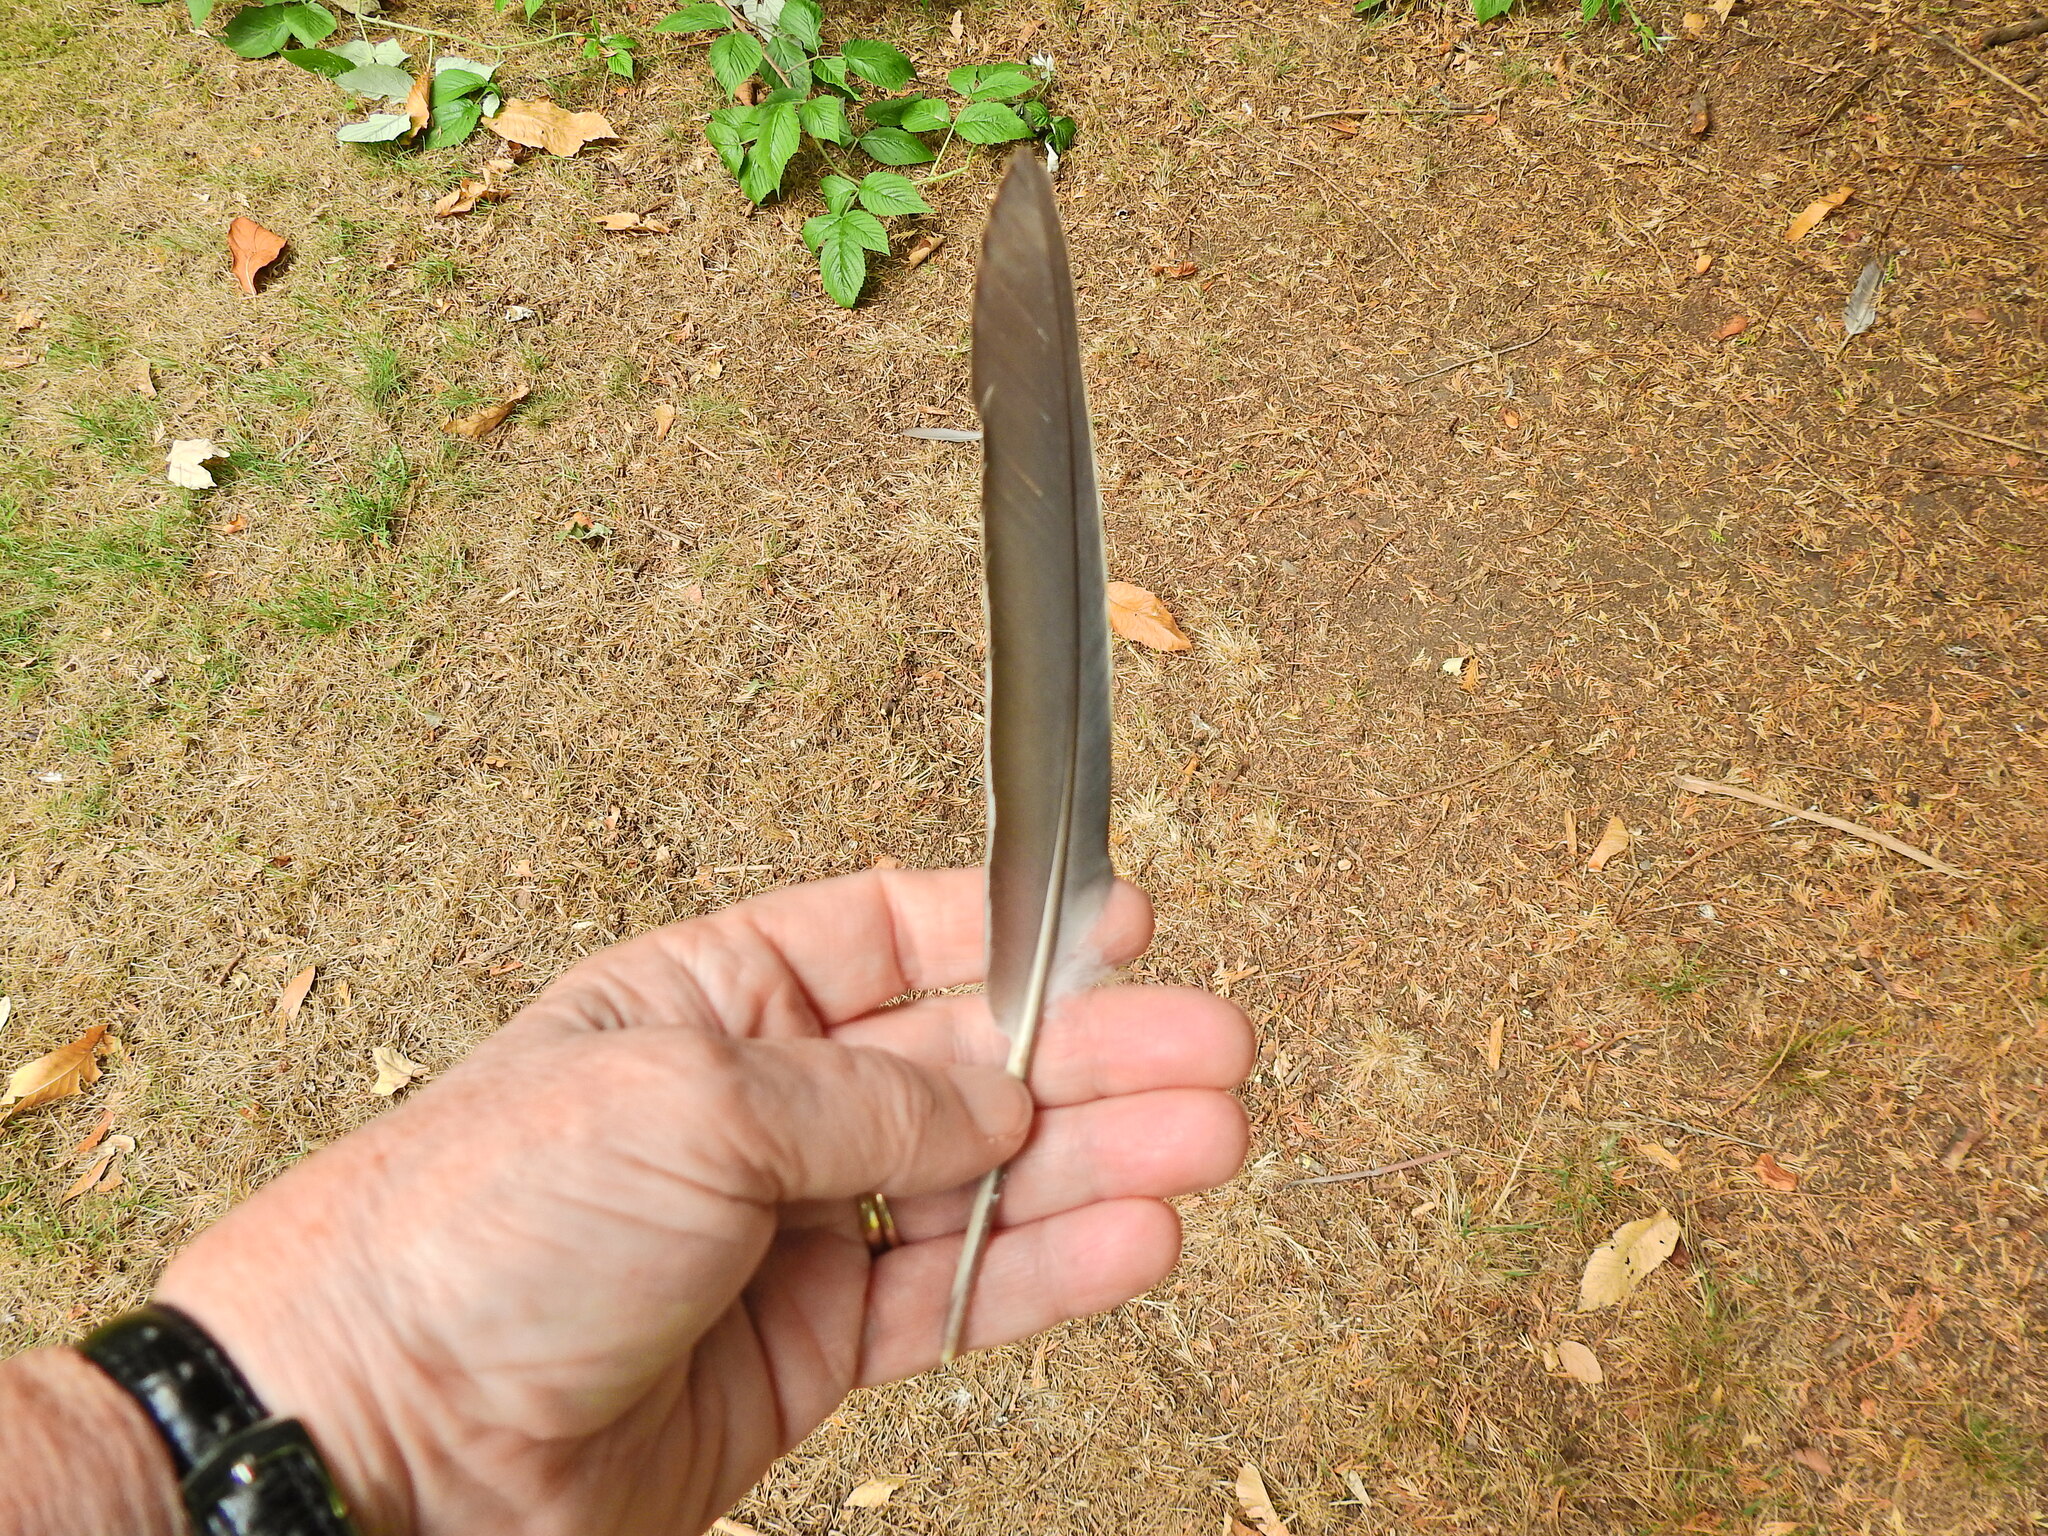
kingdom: Animalia
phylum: Chordata
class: Aves
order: Columbiformes
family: Columbidae
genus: Columba
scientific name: Columba palumbus
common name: Common wood pigeon
